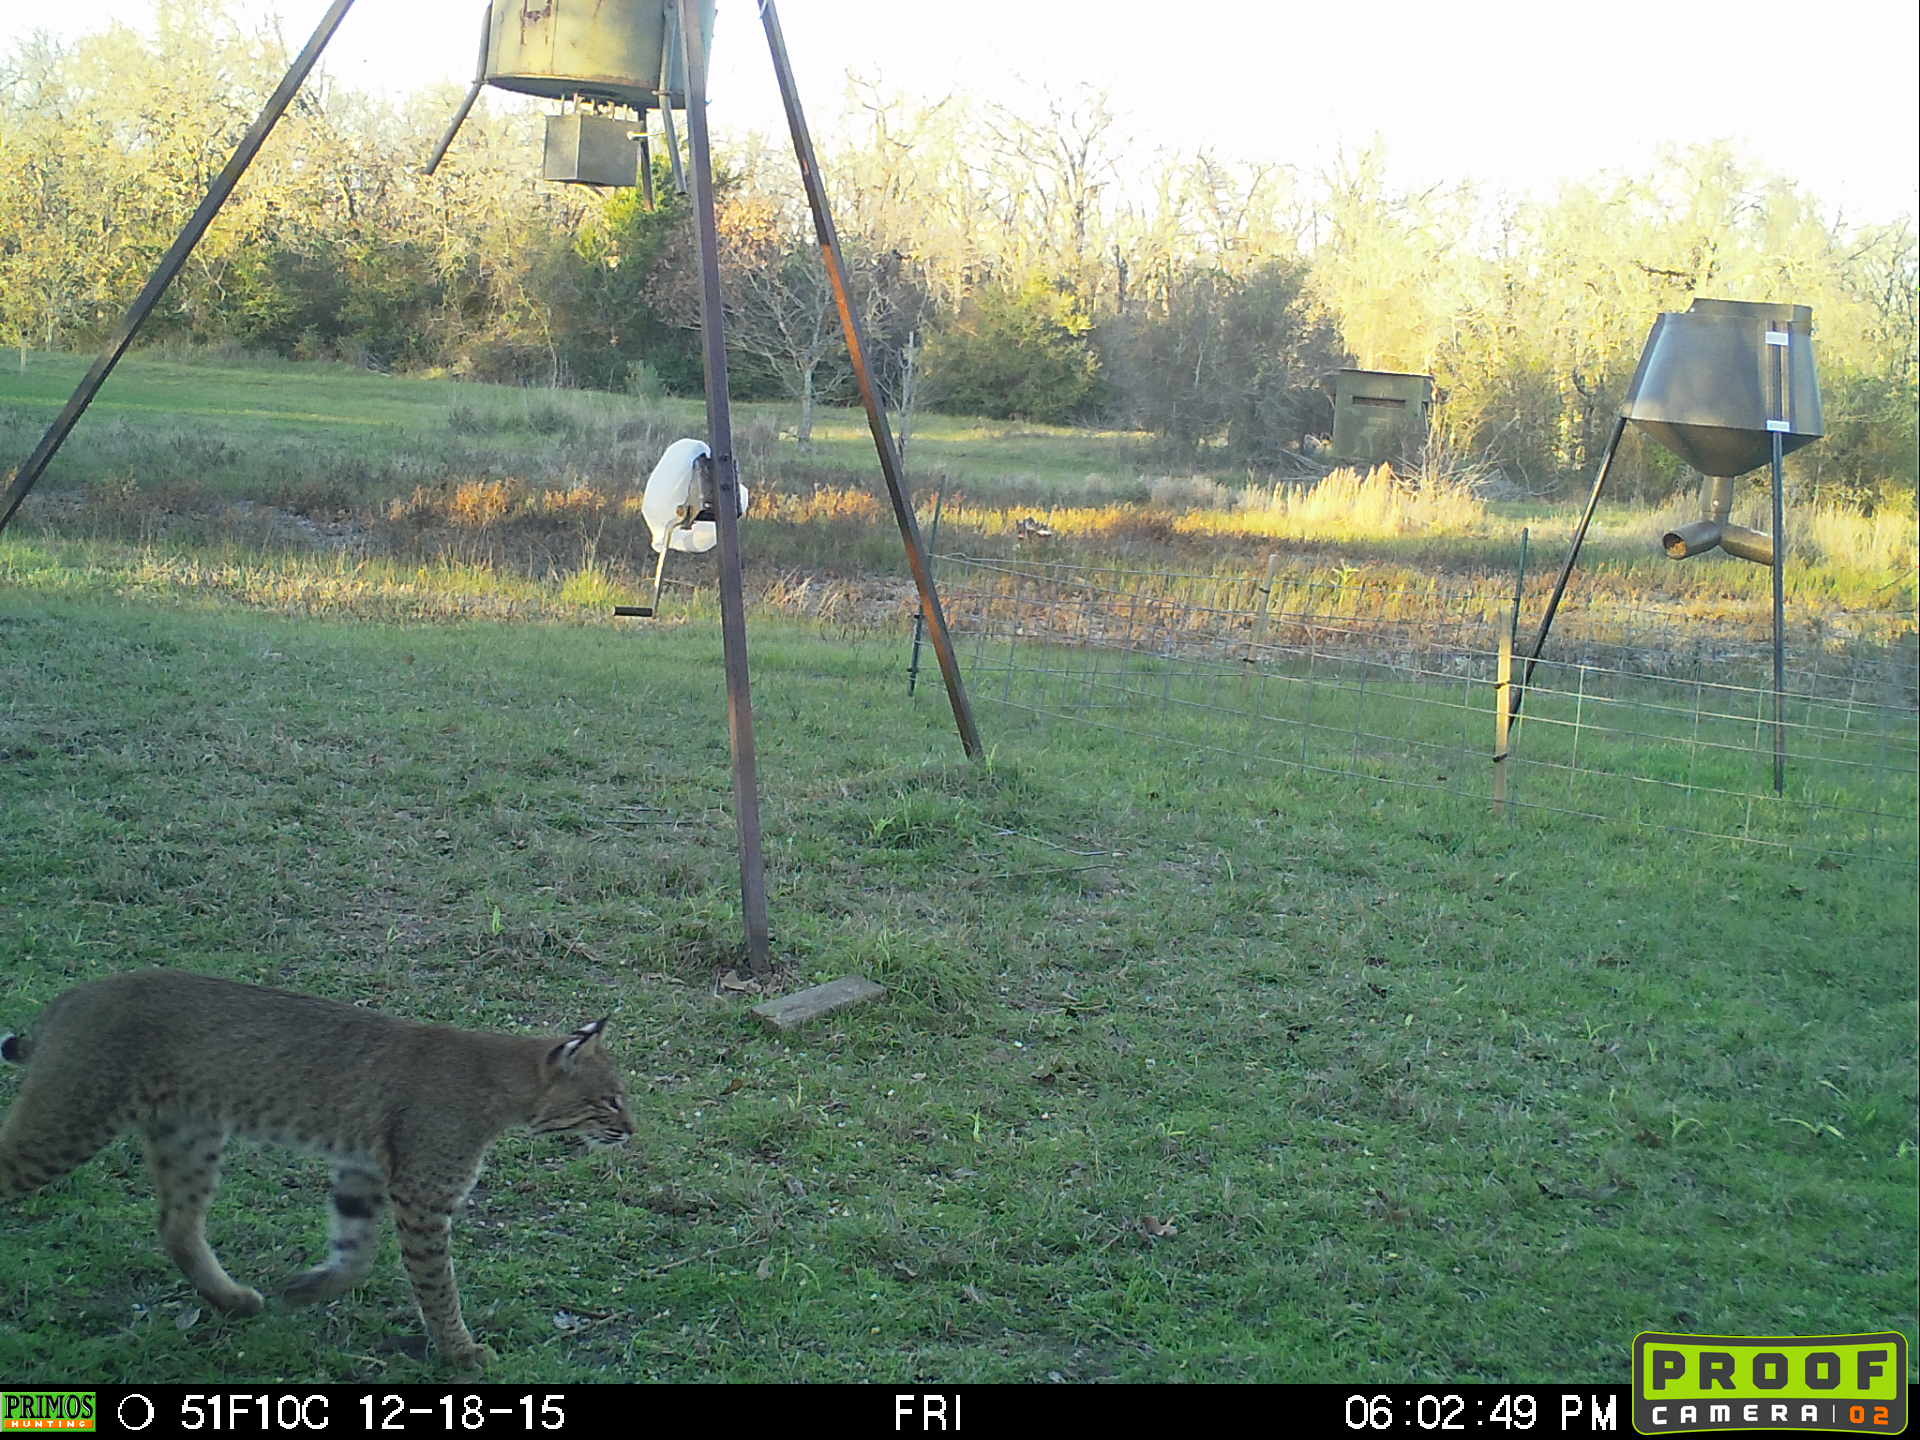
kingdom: Animalia
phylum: Chordata
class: Mammalia
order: Carnivora
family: Felidae
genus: Lynx
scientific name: Lynx rufus
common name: Bobcat
